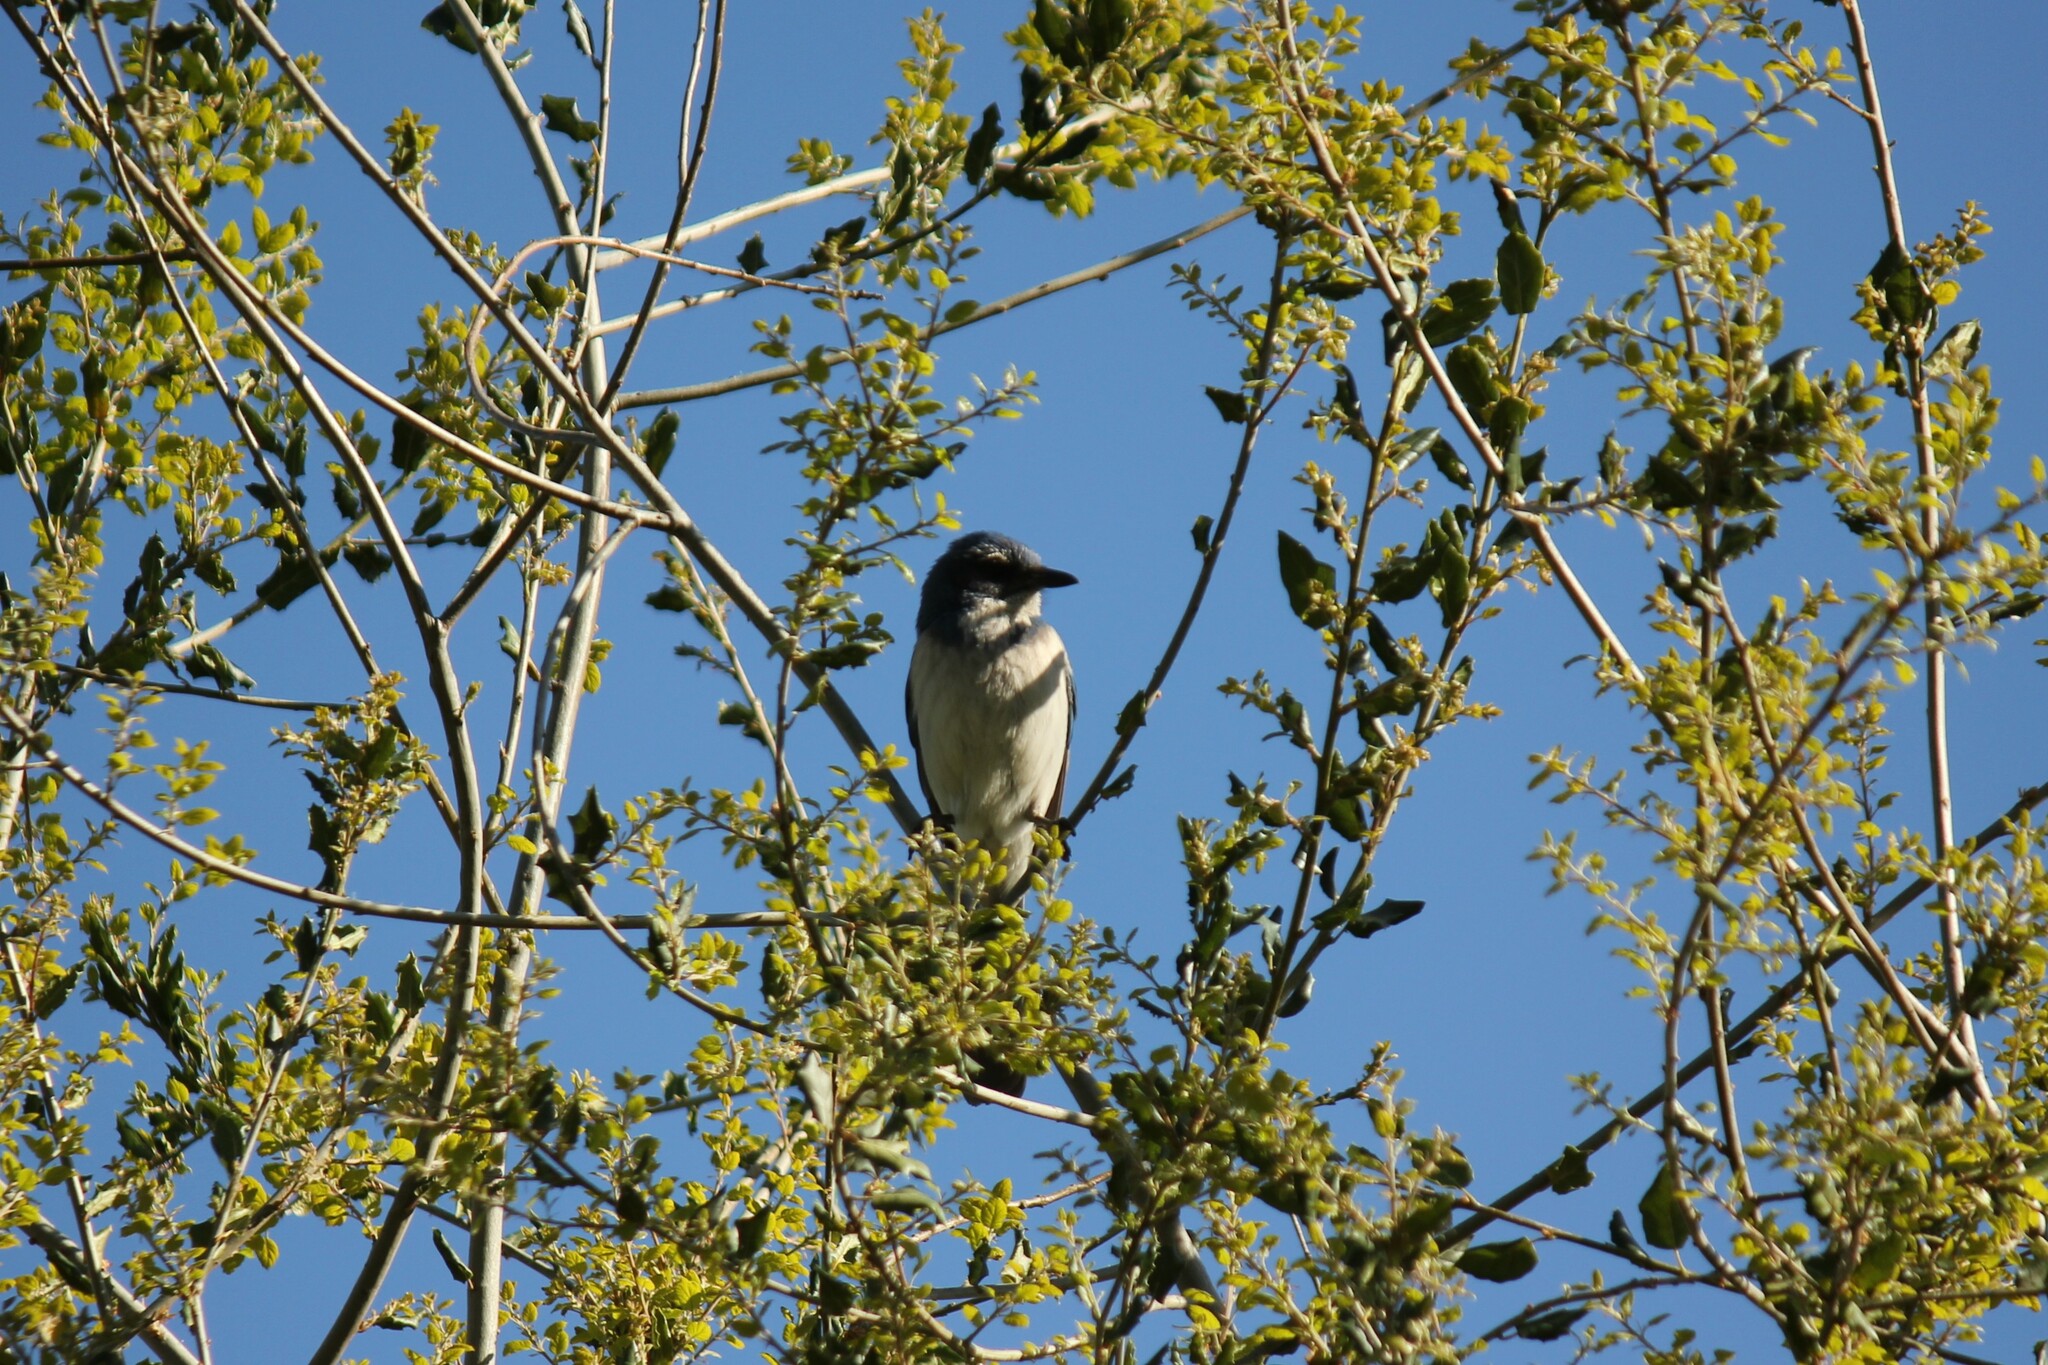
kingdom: Animalia
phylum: Chordata
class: Aves
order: Passeriformes
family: Corvidae
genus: Aphelocoma
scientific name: Aphelocoma californica
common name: California scrub-jay
